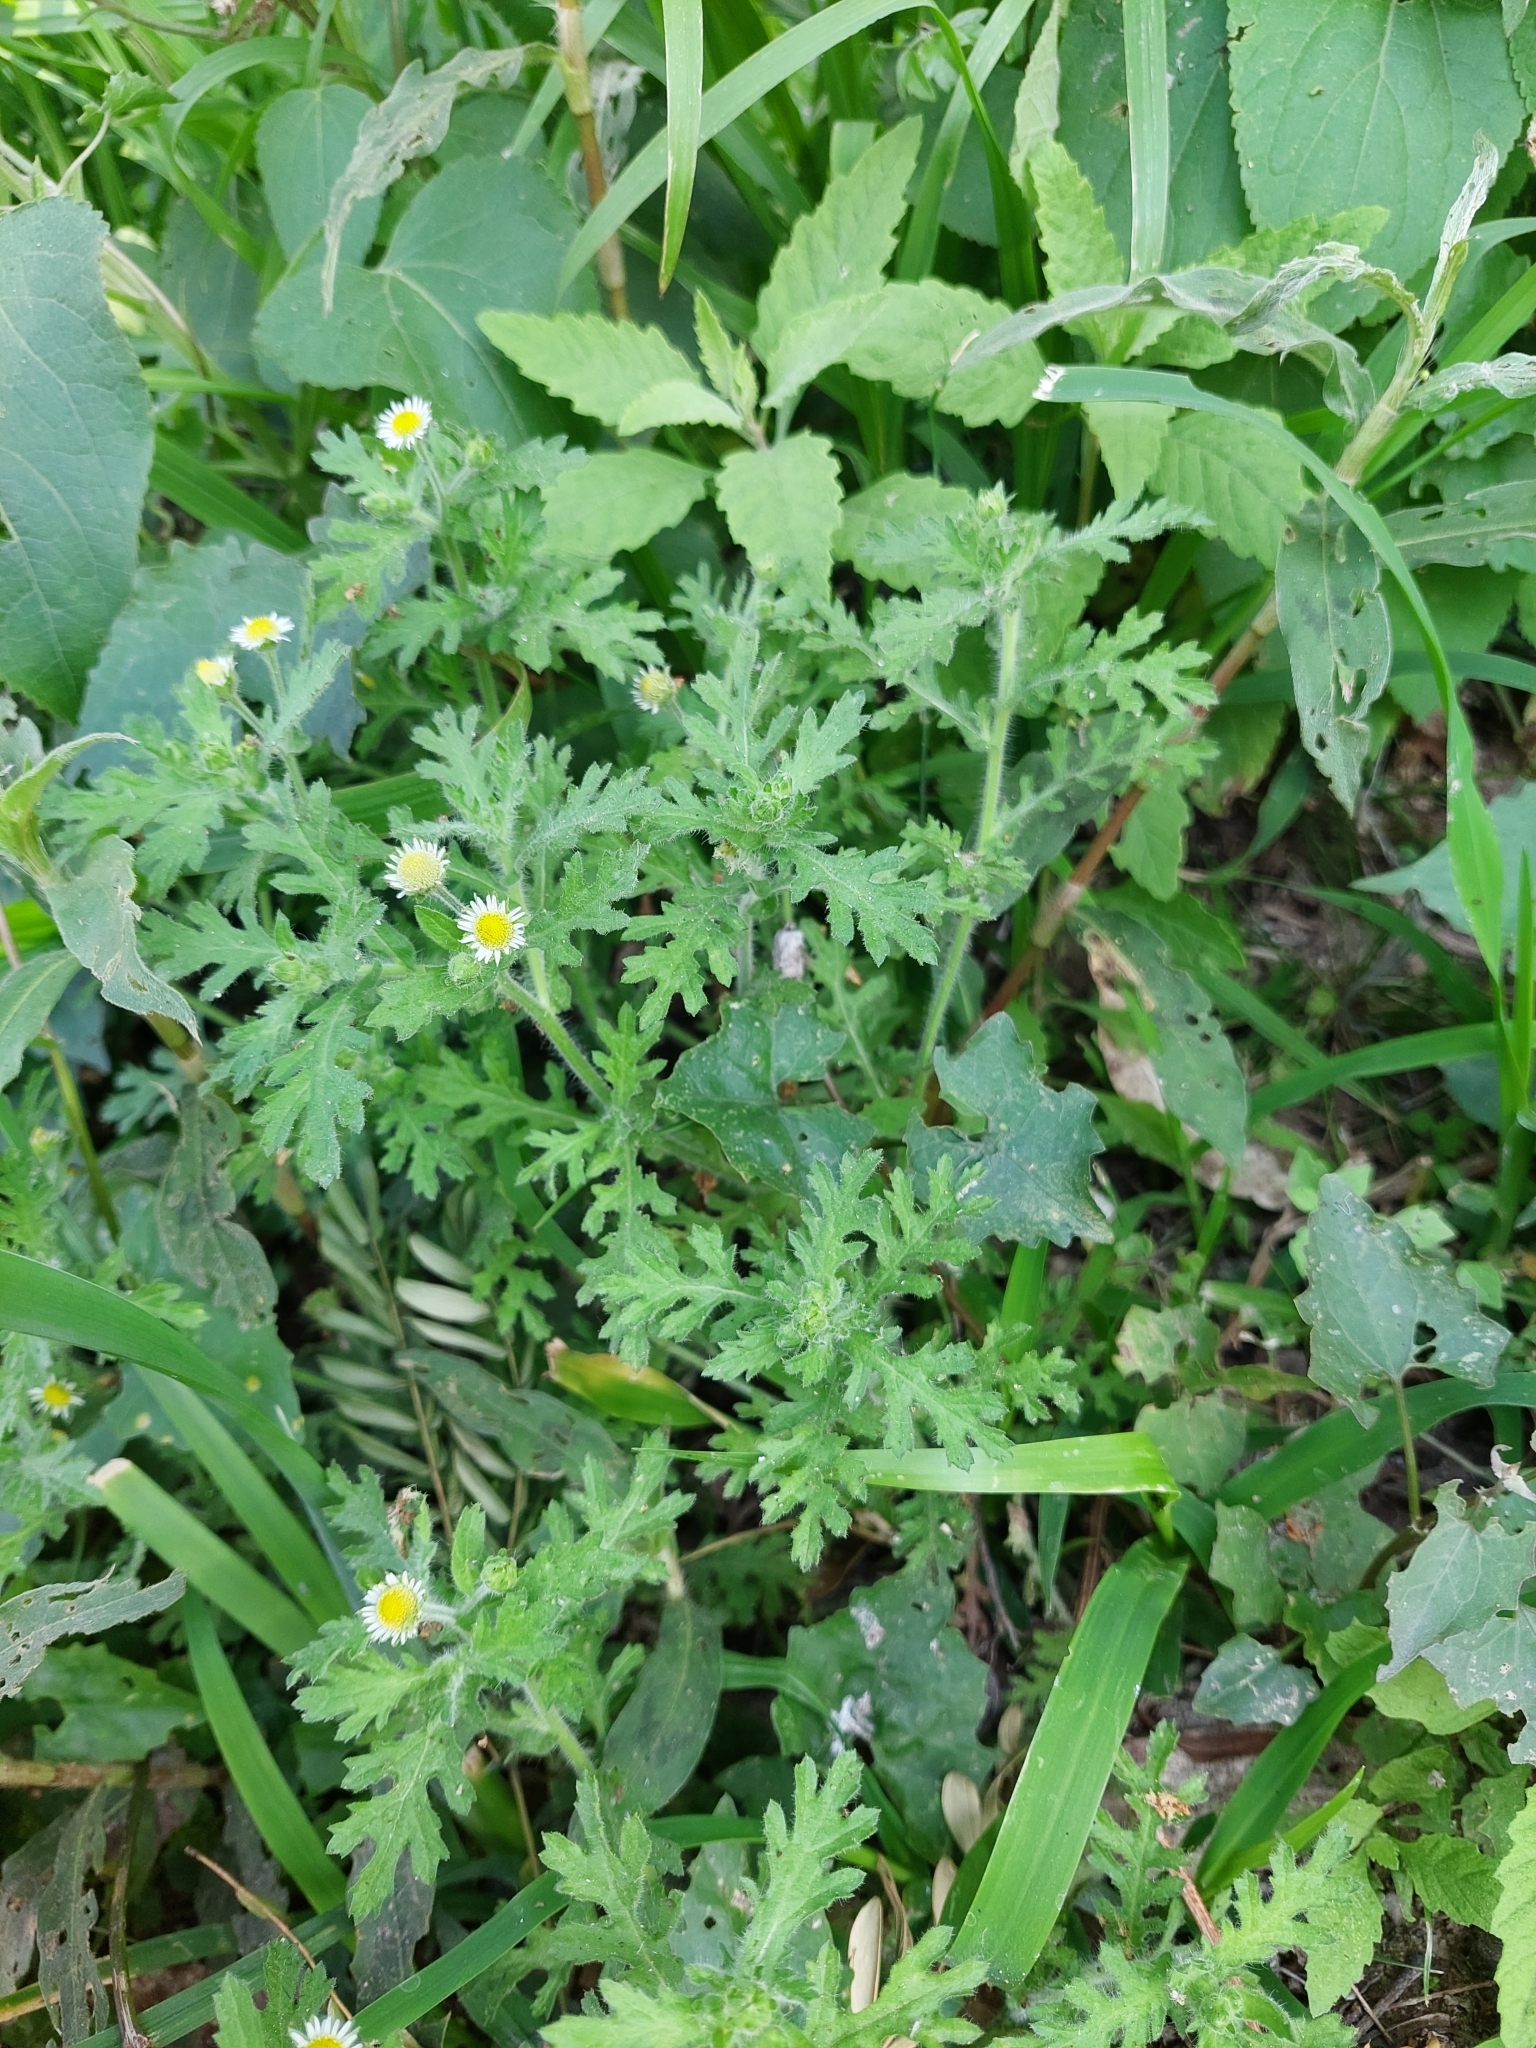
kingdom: Plantae
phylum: Tracheophyta
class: Magnoliopsida
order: Asterales
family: Asteraceae
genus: Egletes
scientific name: Egletes viscosa
